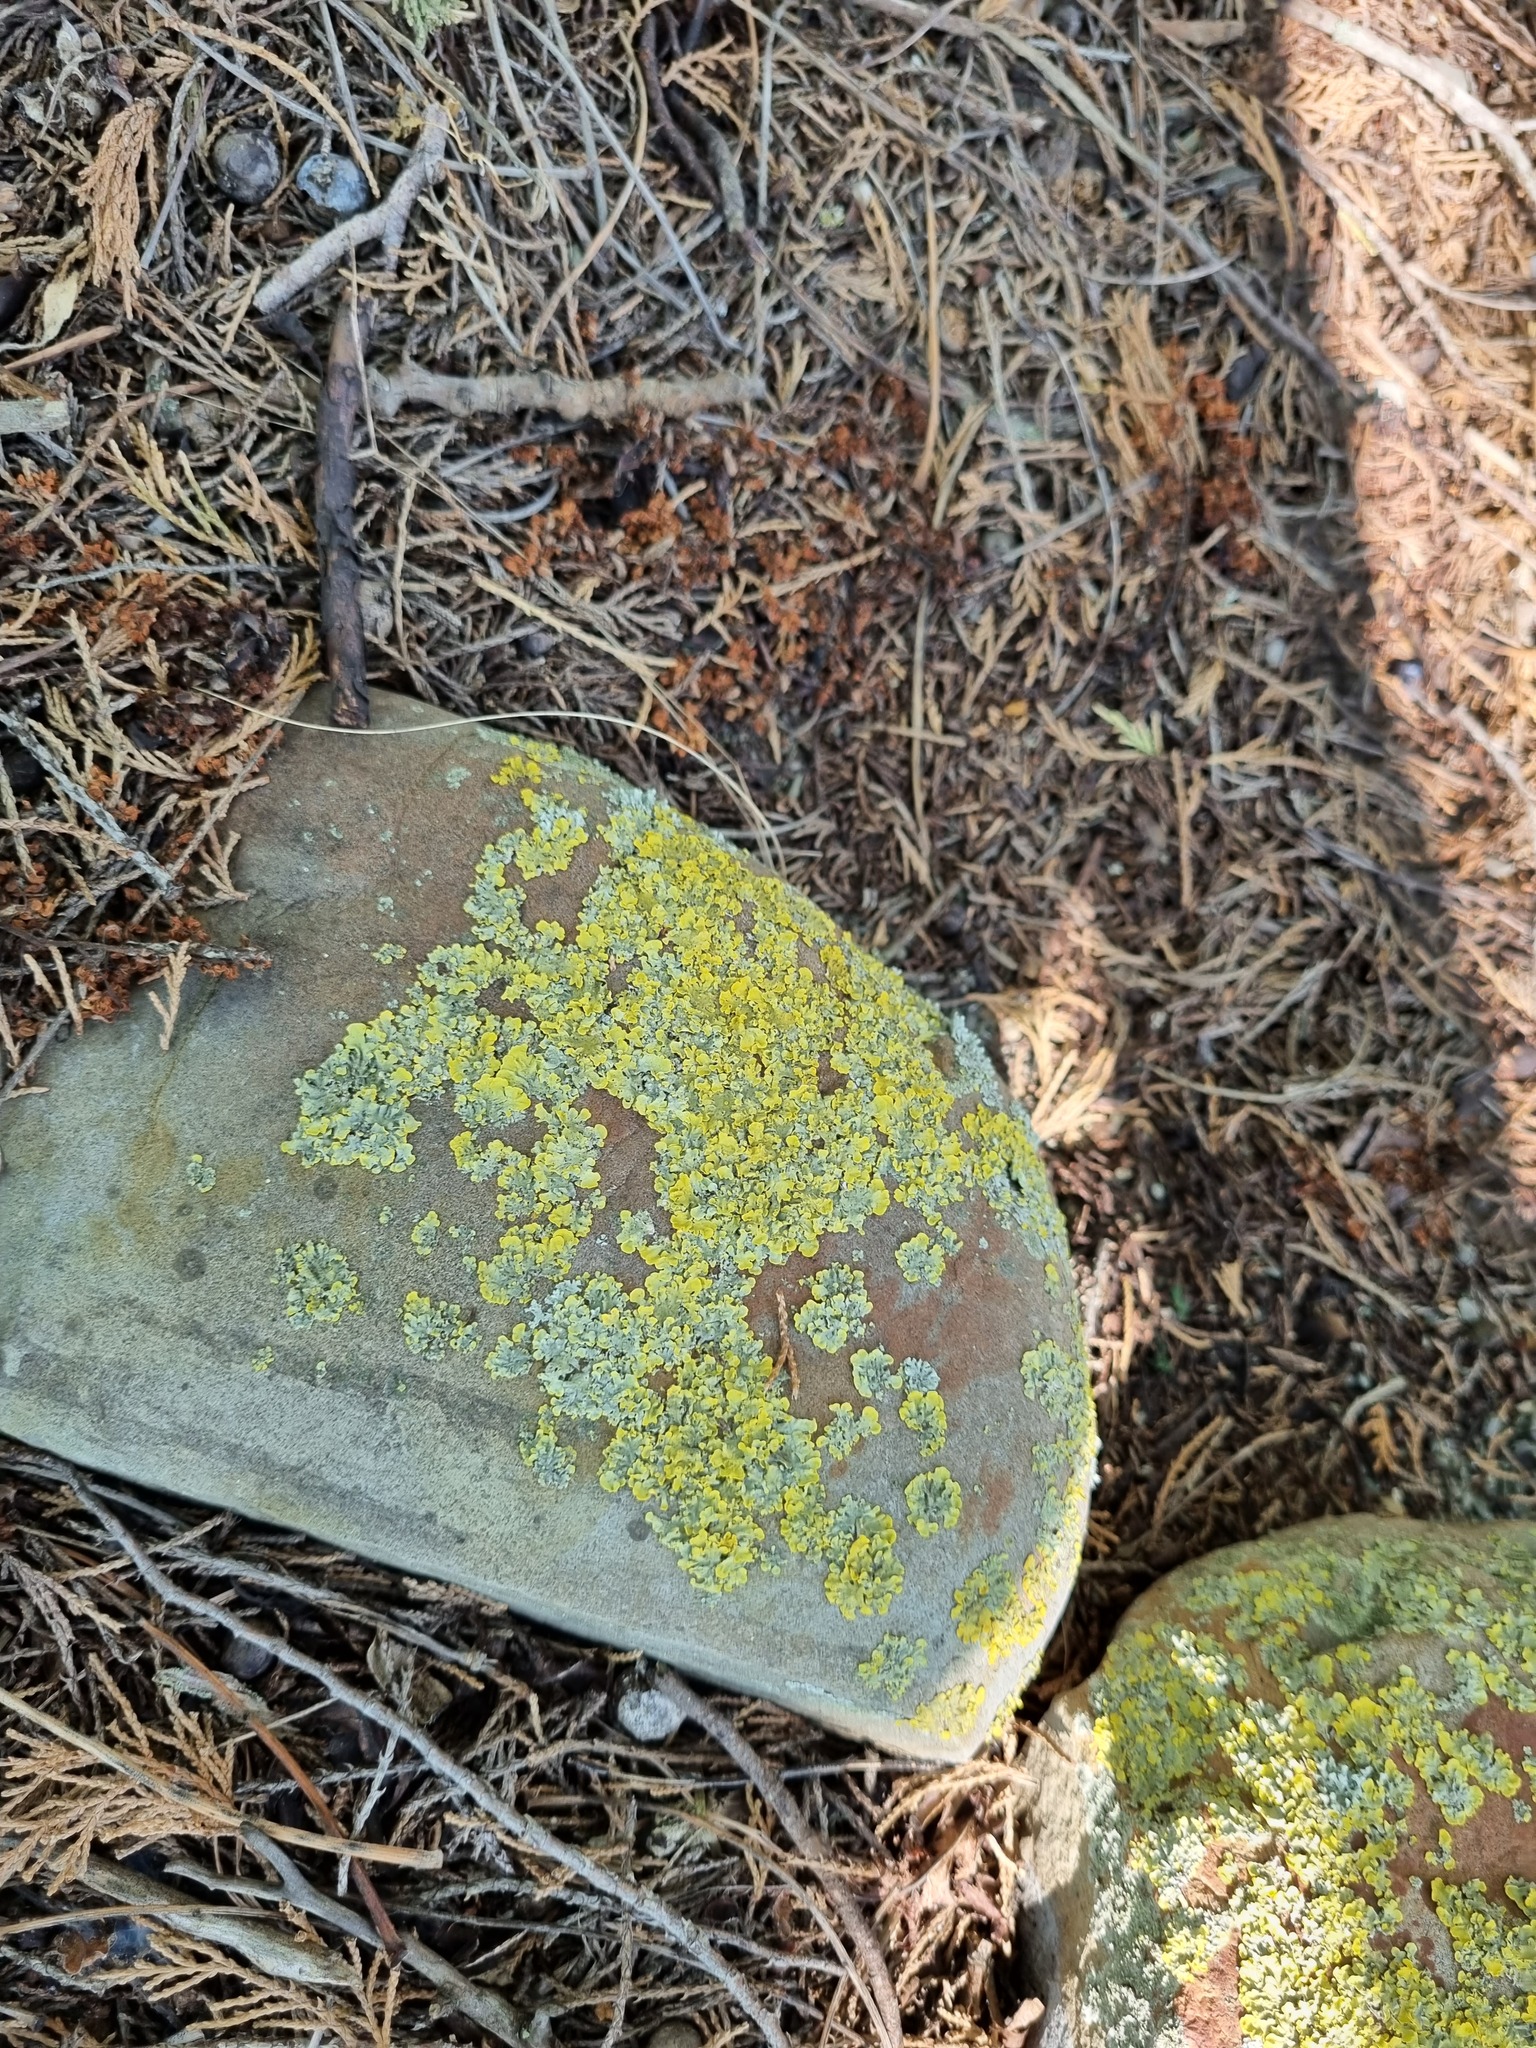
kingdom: Fungi
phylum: Ascomycota
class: Lecanoromycetes
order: Teloschistales
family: Teloschistaceae
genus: Xanthoria
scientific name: Xanthoria parietina
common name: Common orange lichen
